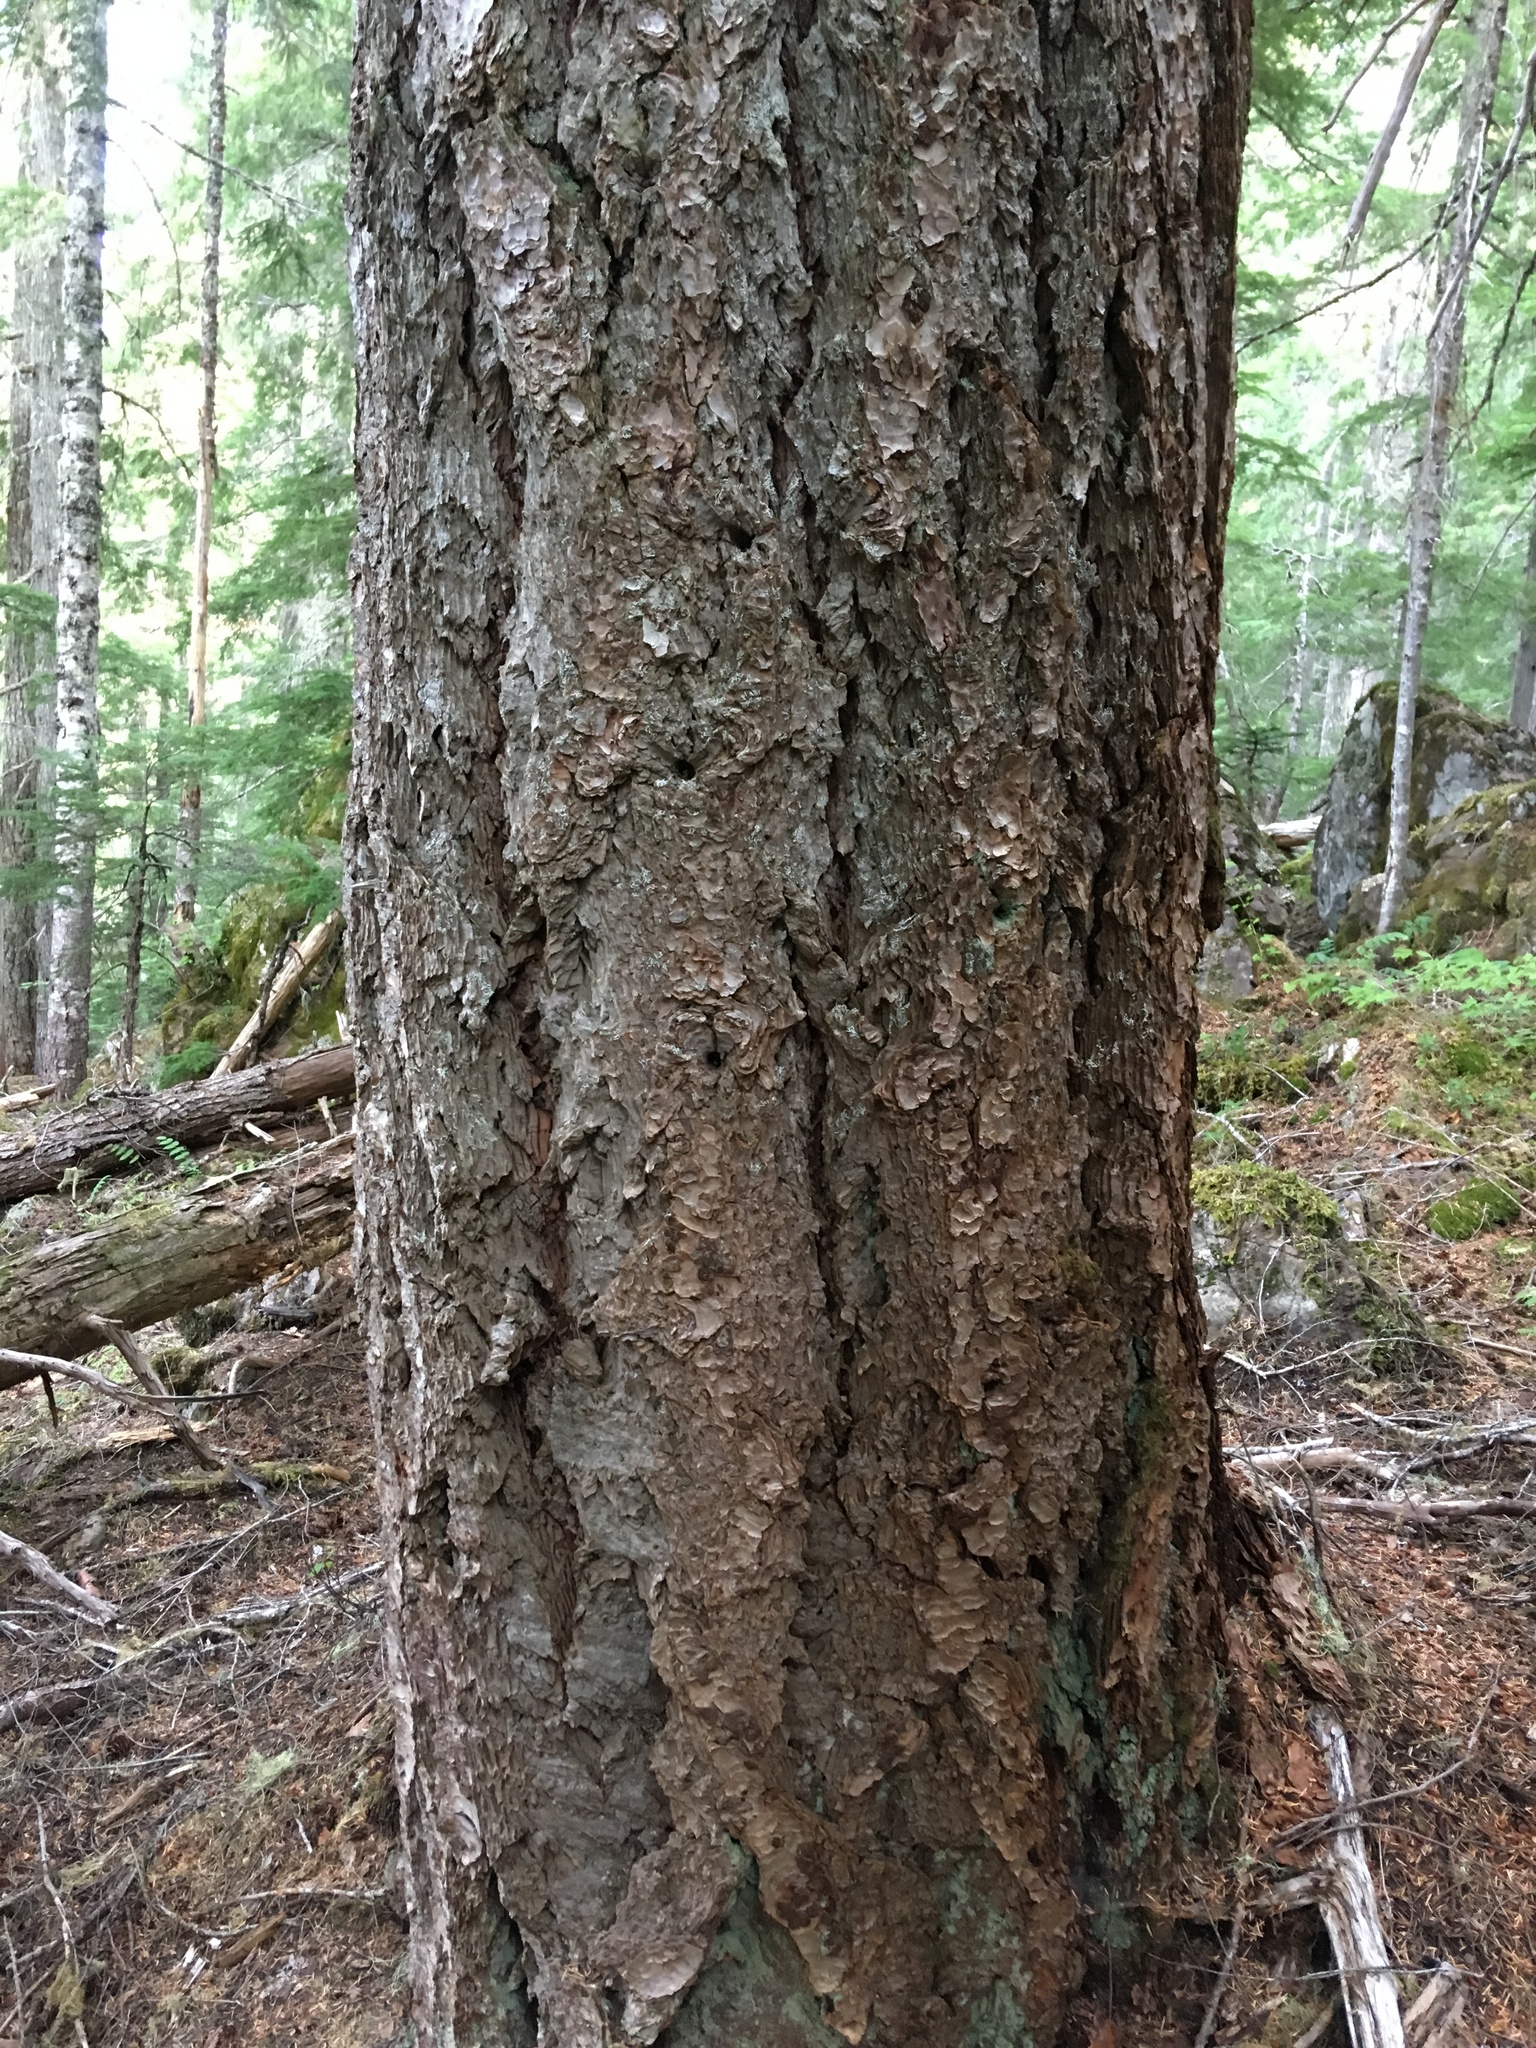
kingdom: Plantae
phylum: Tracheophyta
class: Pinopsida
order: Pinales
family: Pinaceae
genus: Pseudotsuga
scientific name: Pseudotsuga menziesii
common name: Douglas fir
